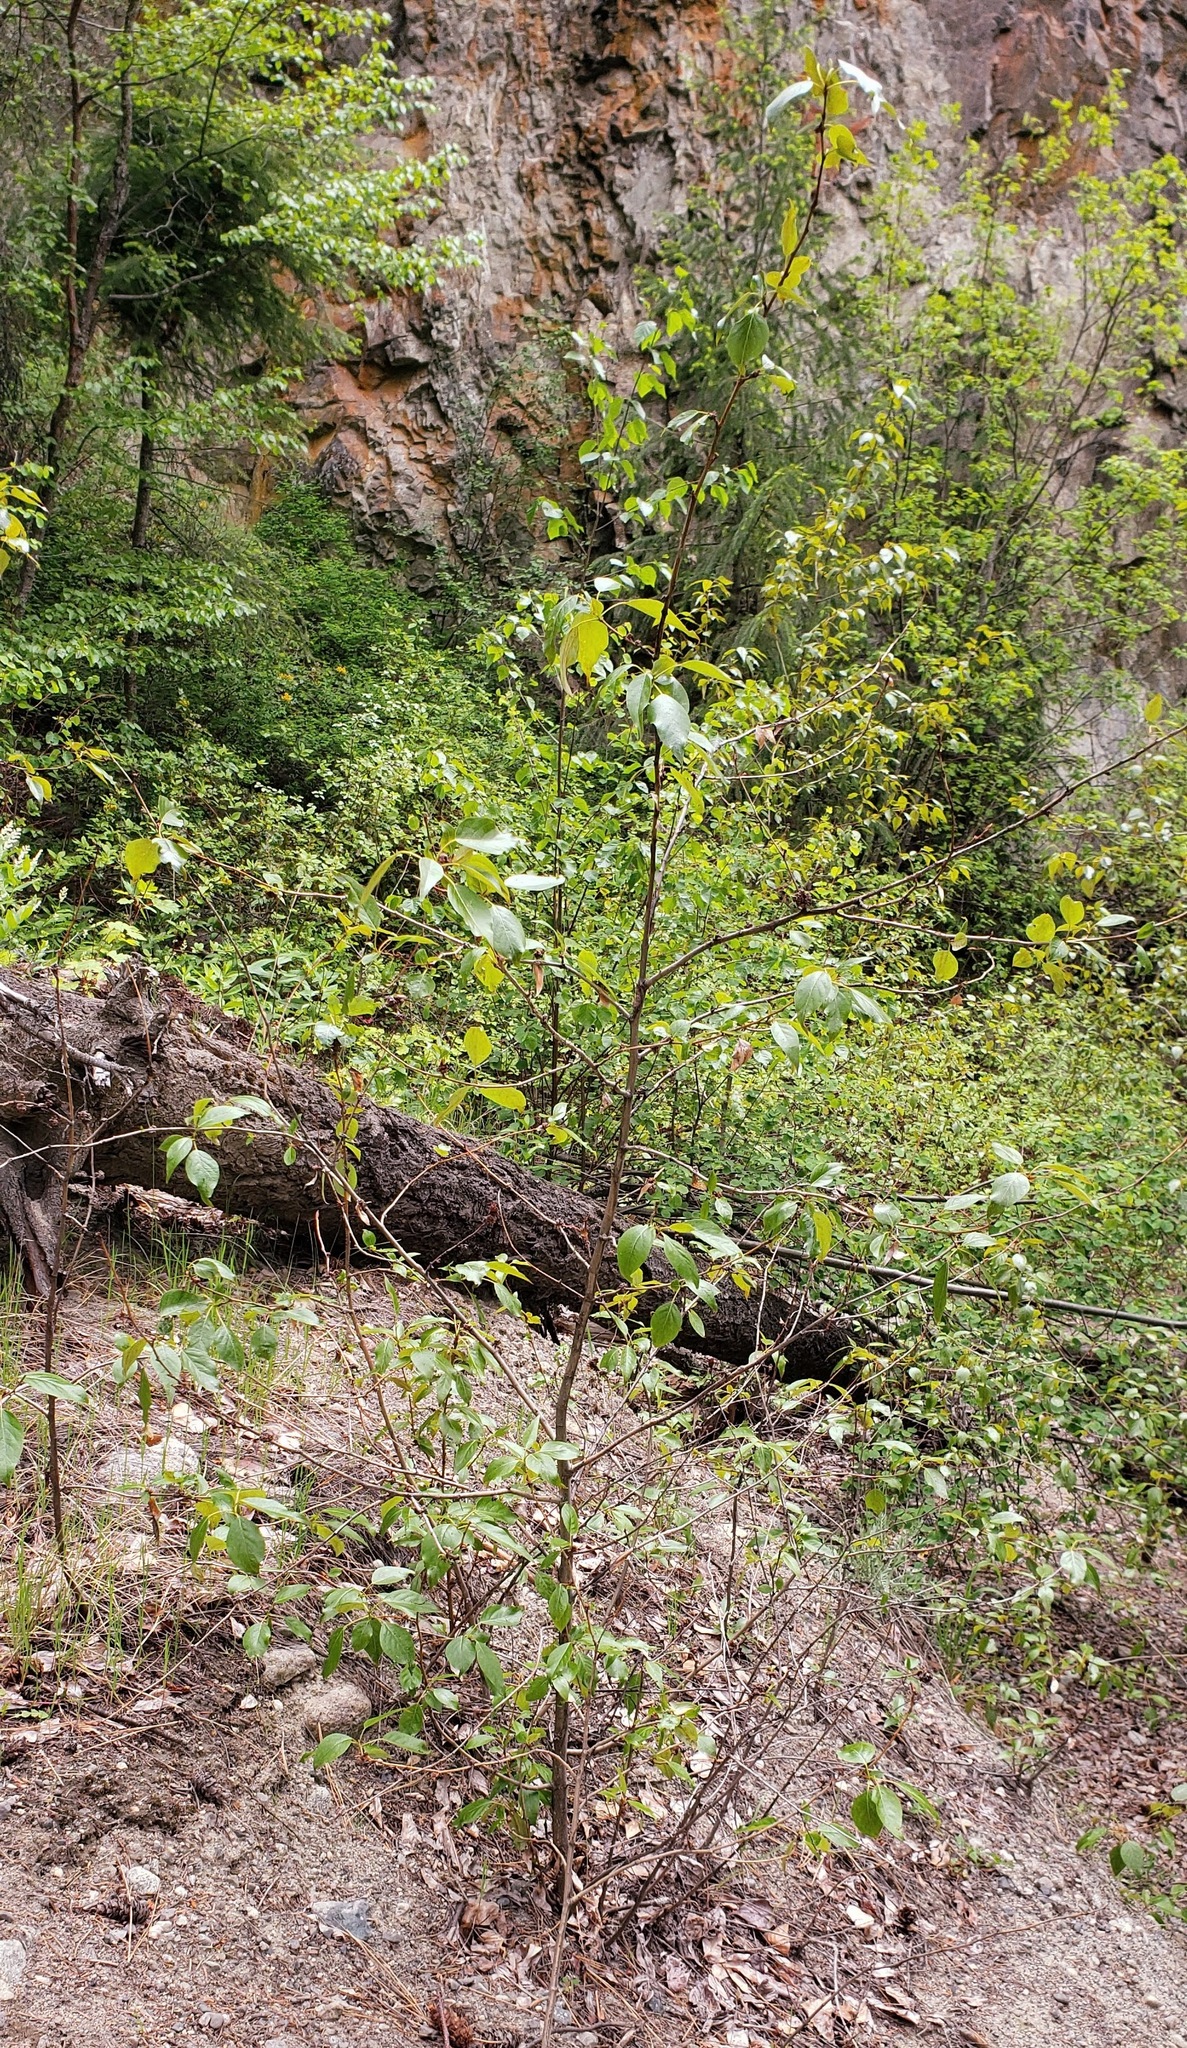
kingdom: Plantae
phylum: Tracheophyta
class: Magnoliopsida
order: Malpighiales
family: Salicaceae
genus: Populus
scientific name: Populus trichocarpa
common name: Black cottonwood
